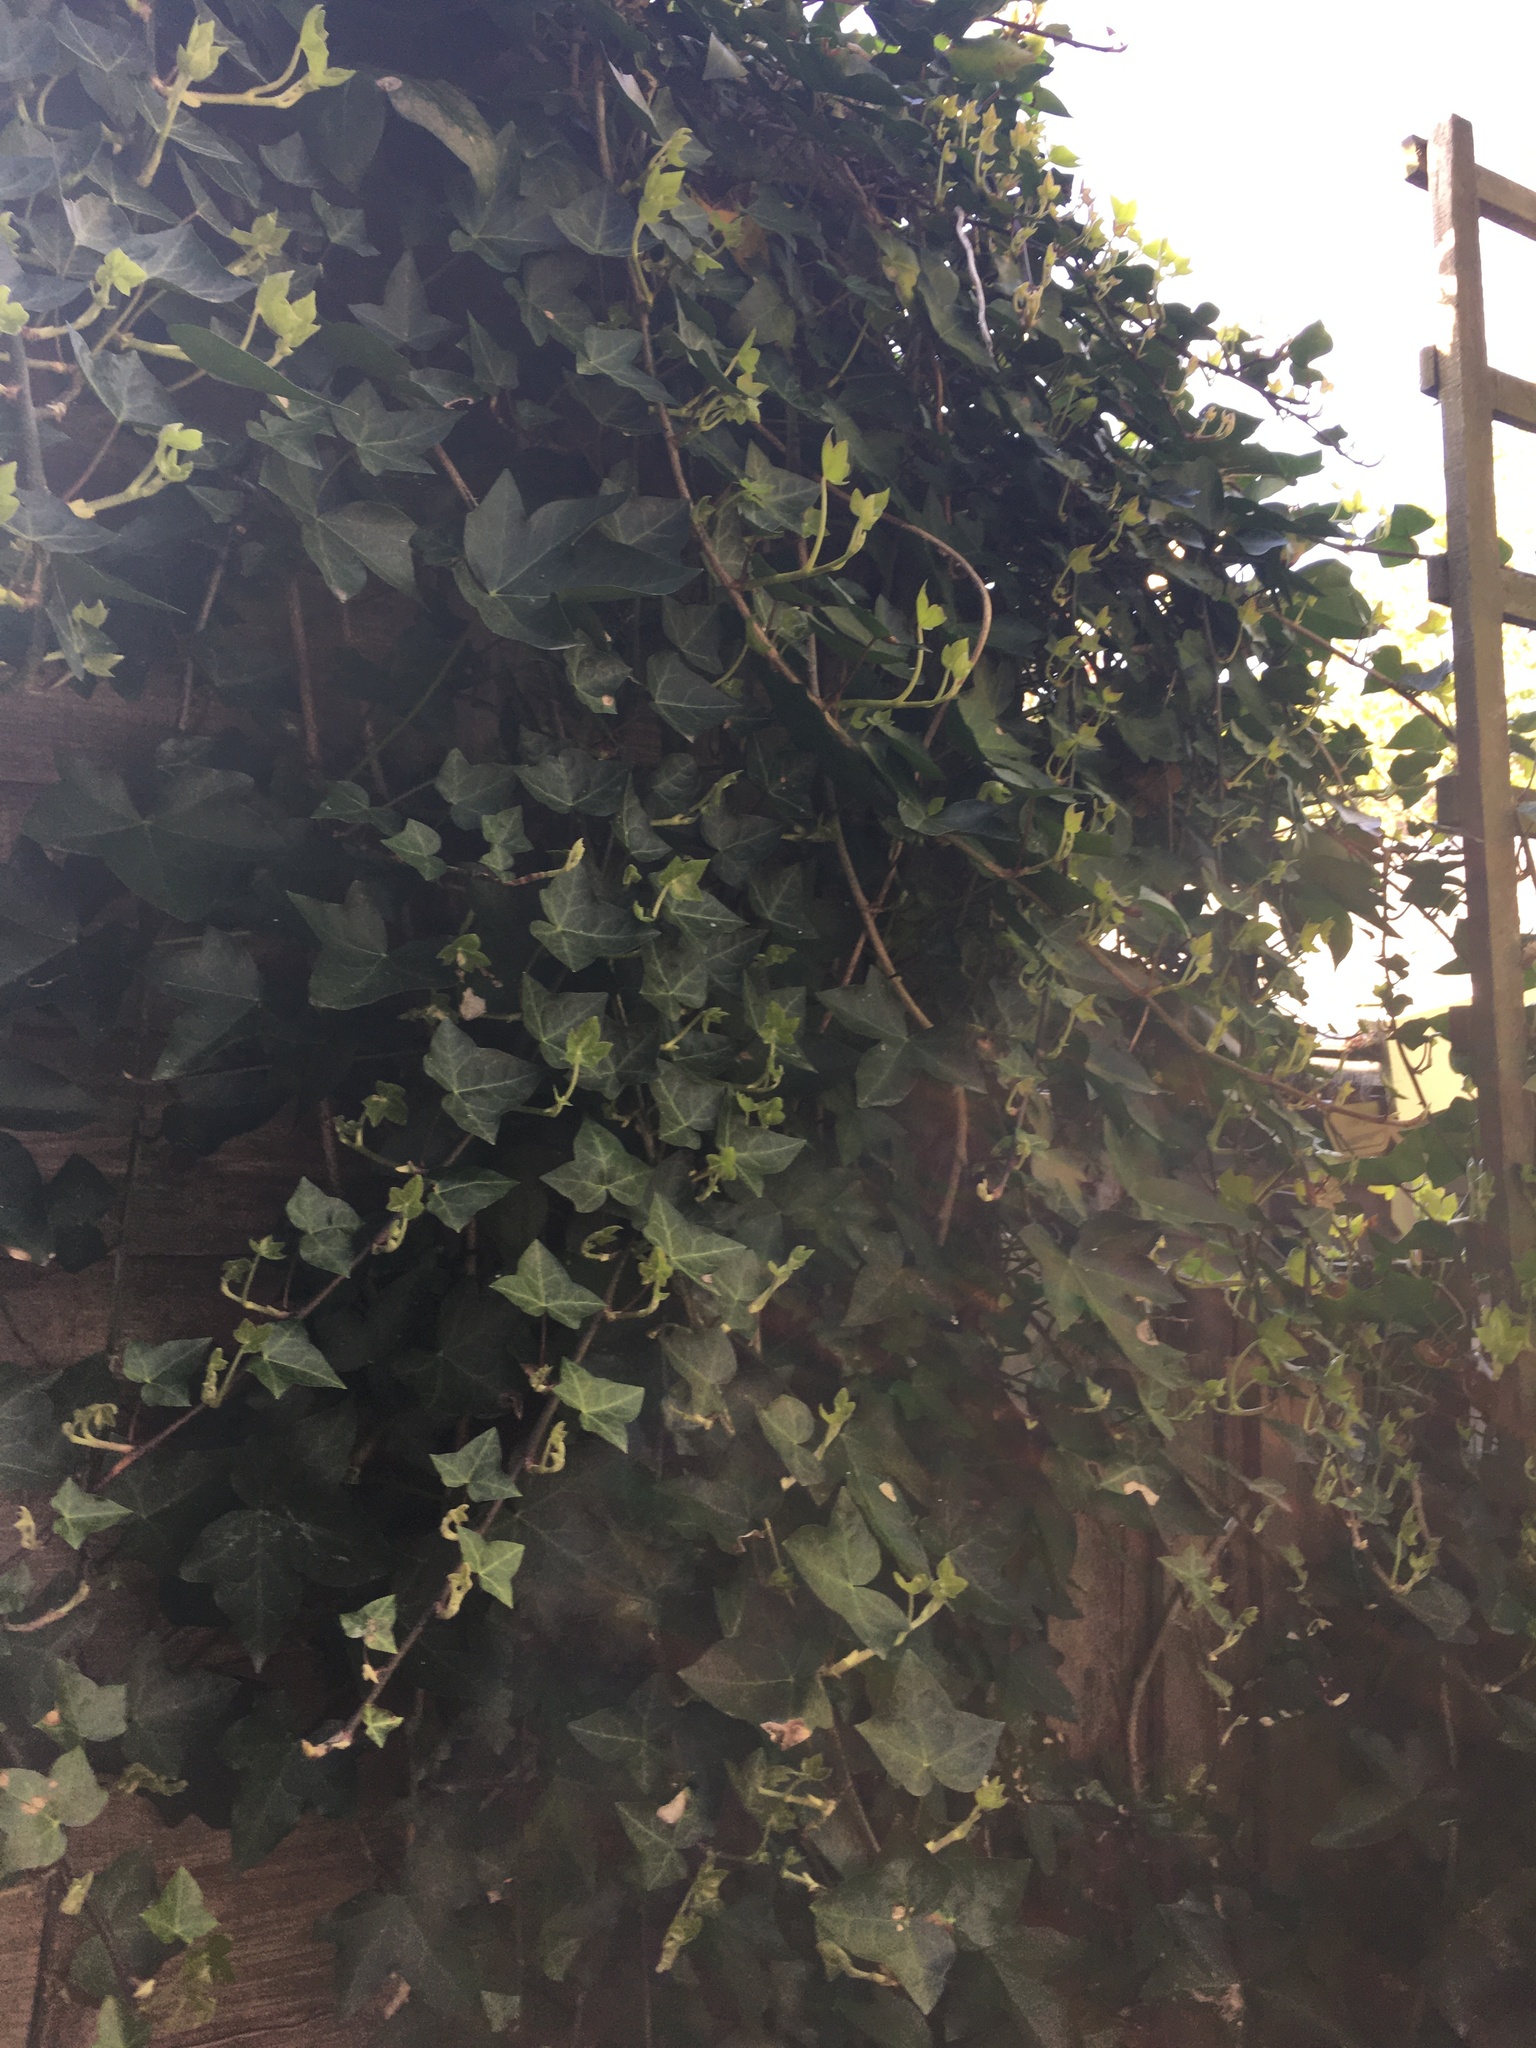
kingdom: Plantae
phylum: Tracheophyta
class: Magnoliopsida
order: Apiales
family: Araliaceae
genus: Hedera
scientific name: Hedera helix
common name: Ivy
